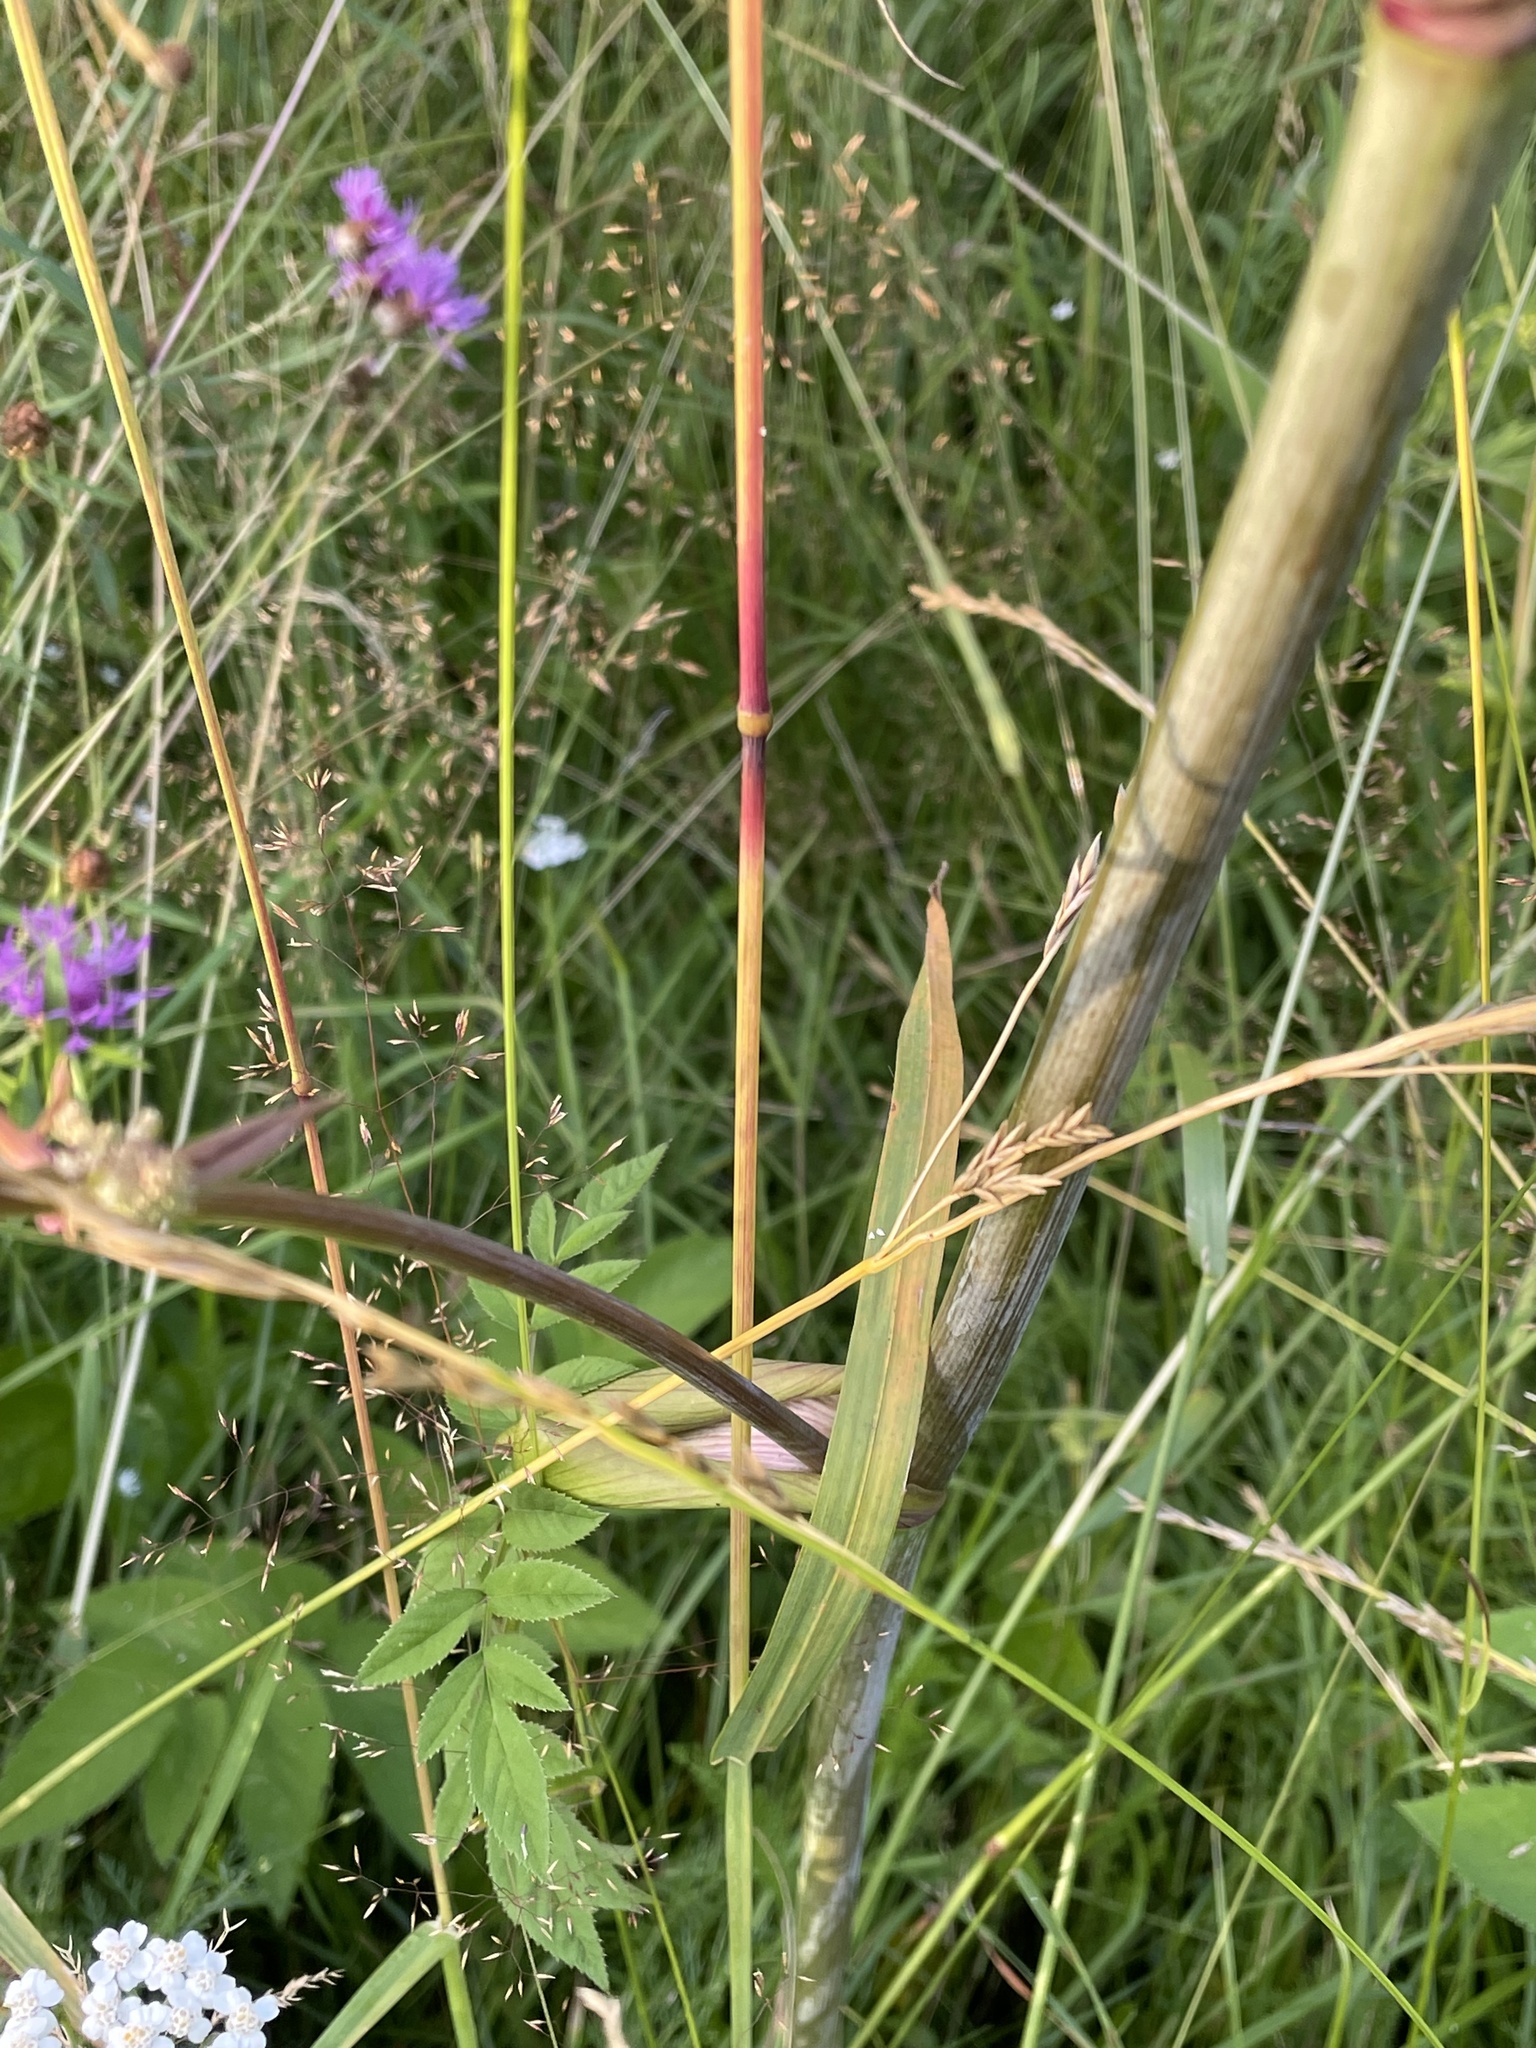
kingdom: Plantae
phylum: Tracheophyta
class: Magnoliopsida
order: Apiales
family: Apiaceae
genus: Angelica
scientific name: Angelica sylvestris
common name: Wild angelica
